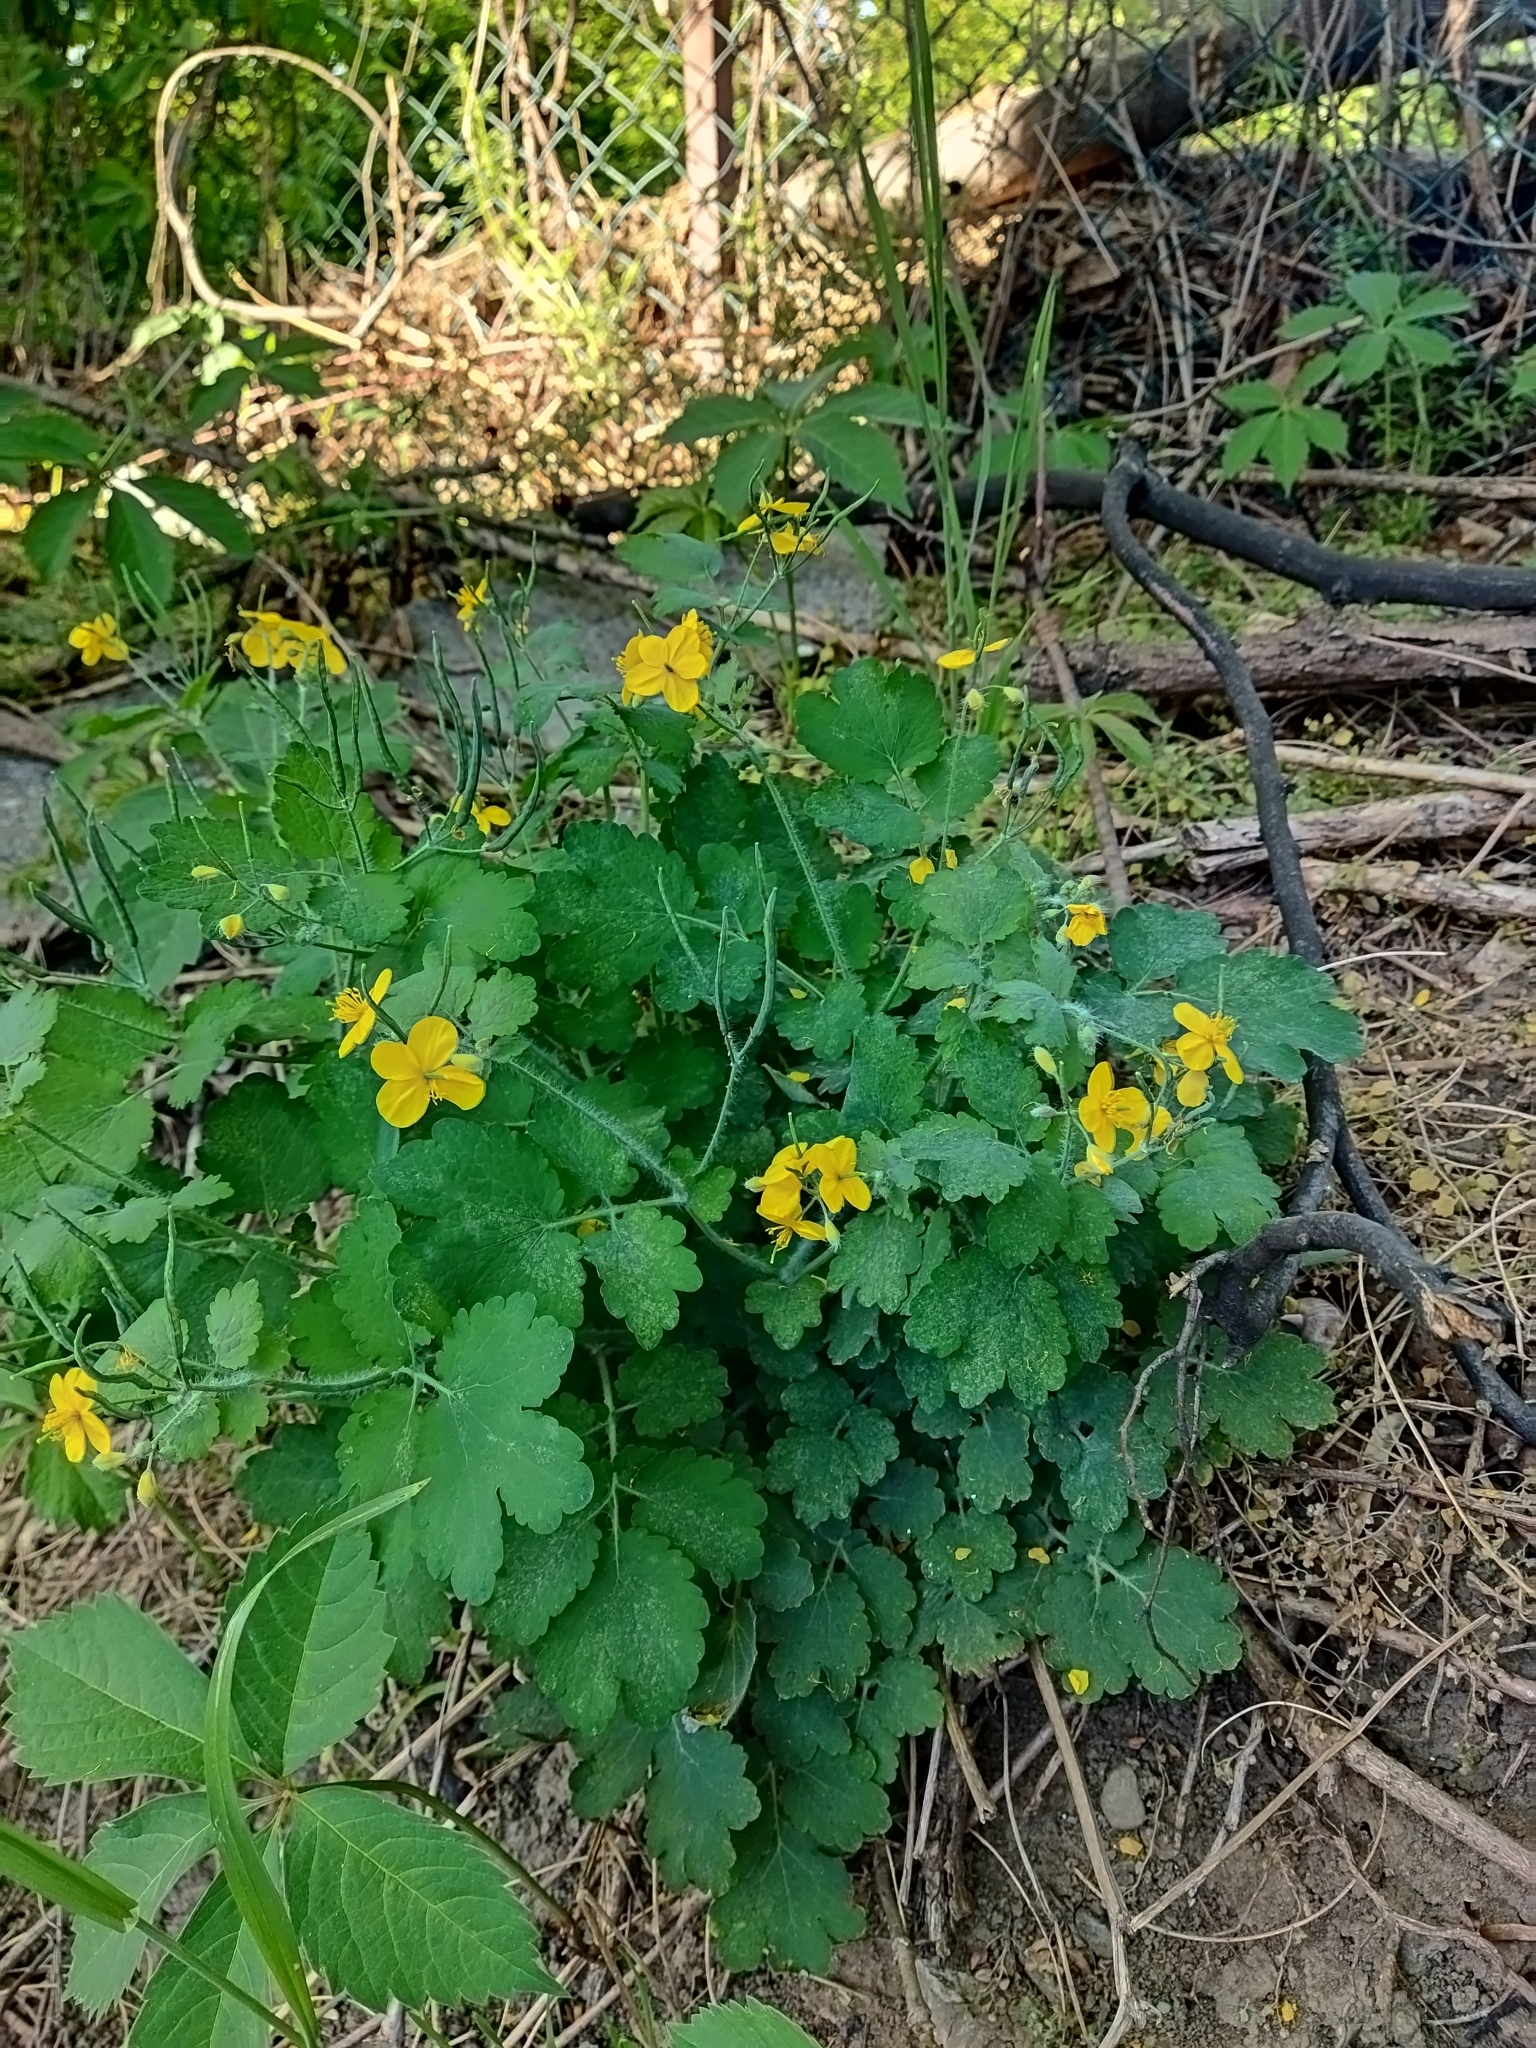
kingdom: Plantae
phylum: Tracheophyta
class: Magnoliopsida
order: Ranunculales
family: Papaveraceae
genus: Chelidonium
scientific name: Chelidonium majus
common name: Greater celandine
